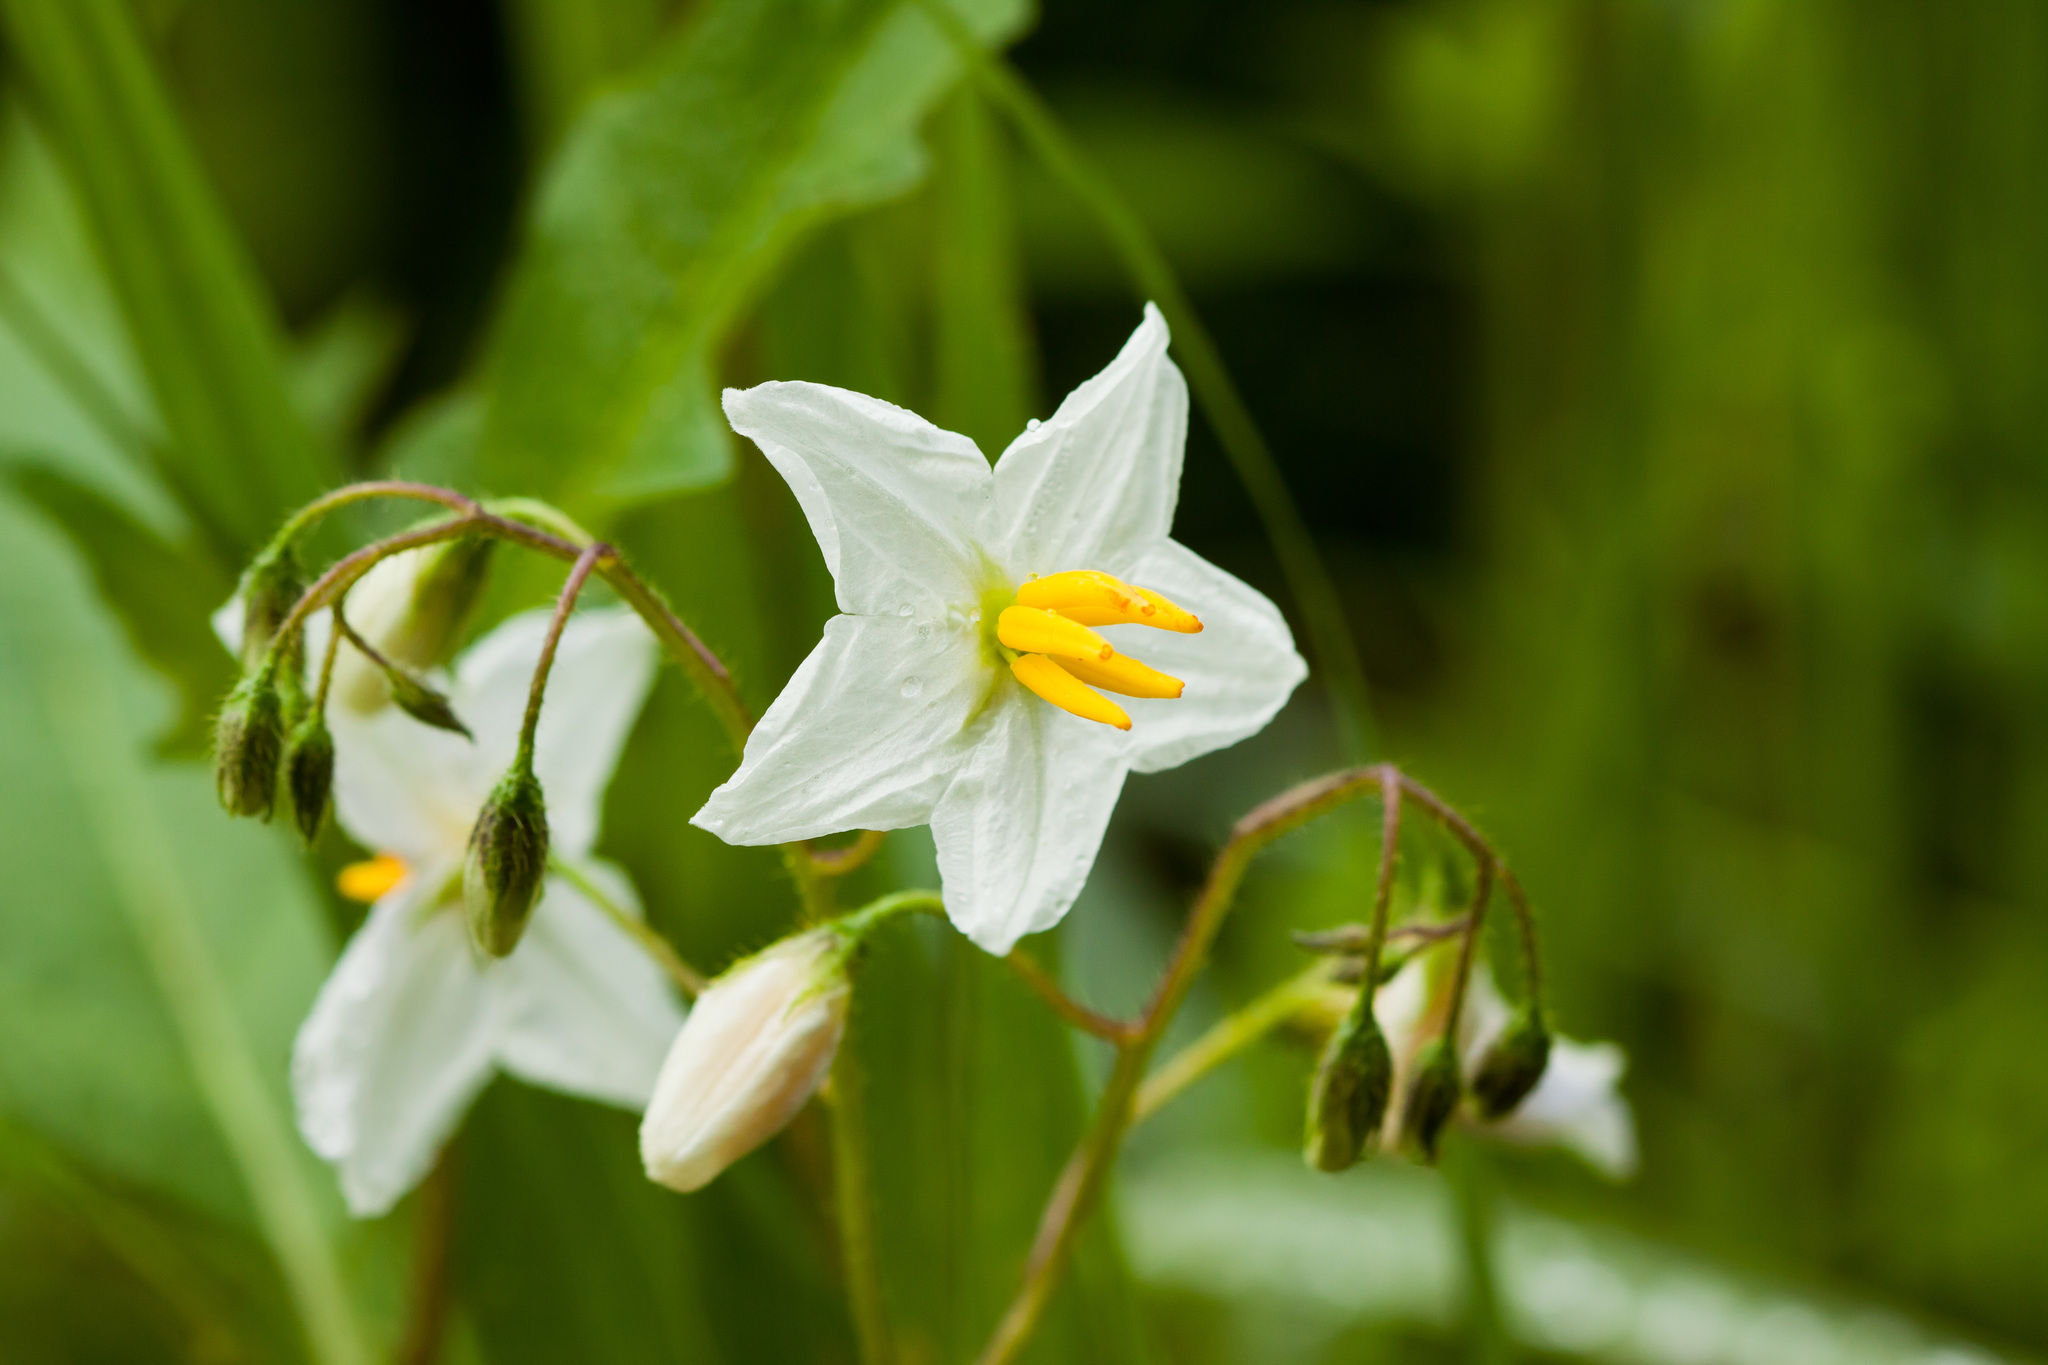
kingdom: Plantae
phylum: Tracheophyta
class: Magnoliopsida
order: Solanales
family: Solanaceae
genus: Solanum
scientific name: Solanum carolinense
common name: Horse-nettle
